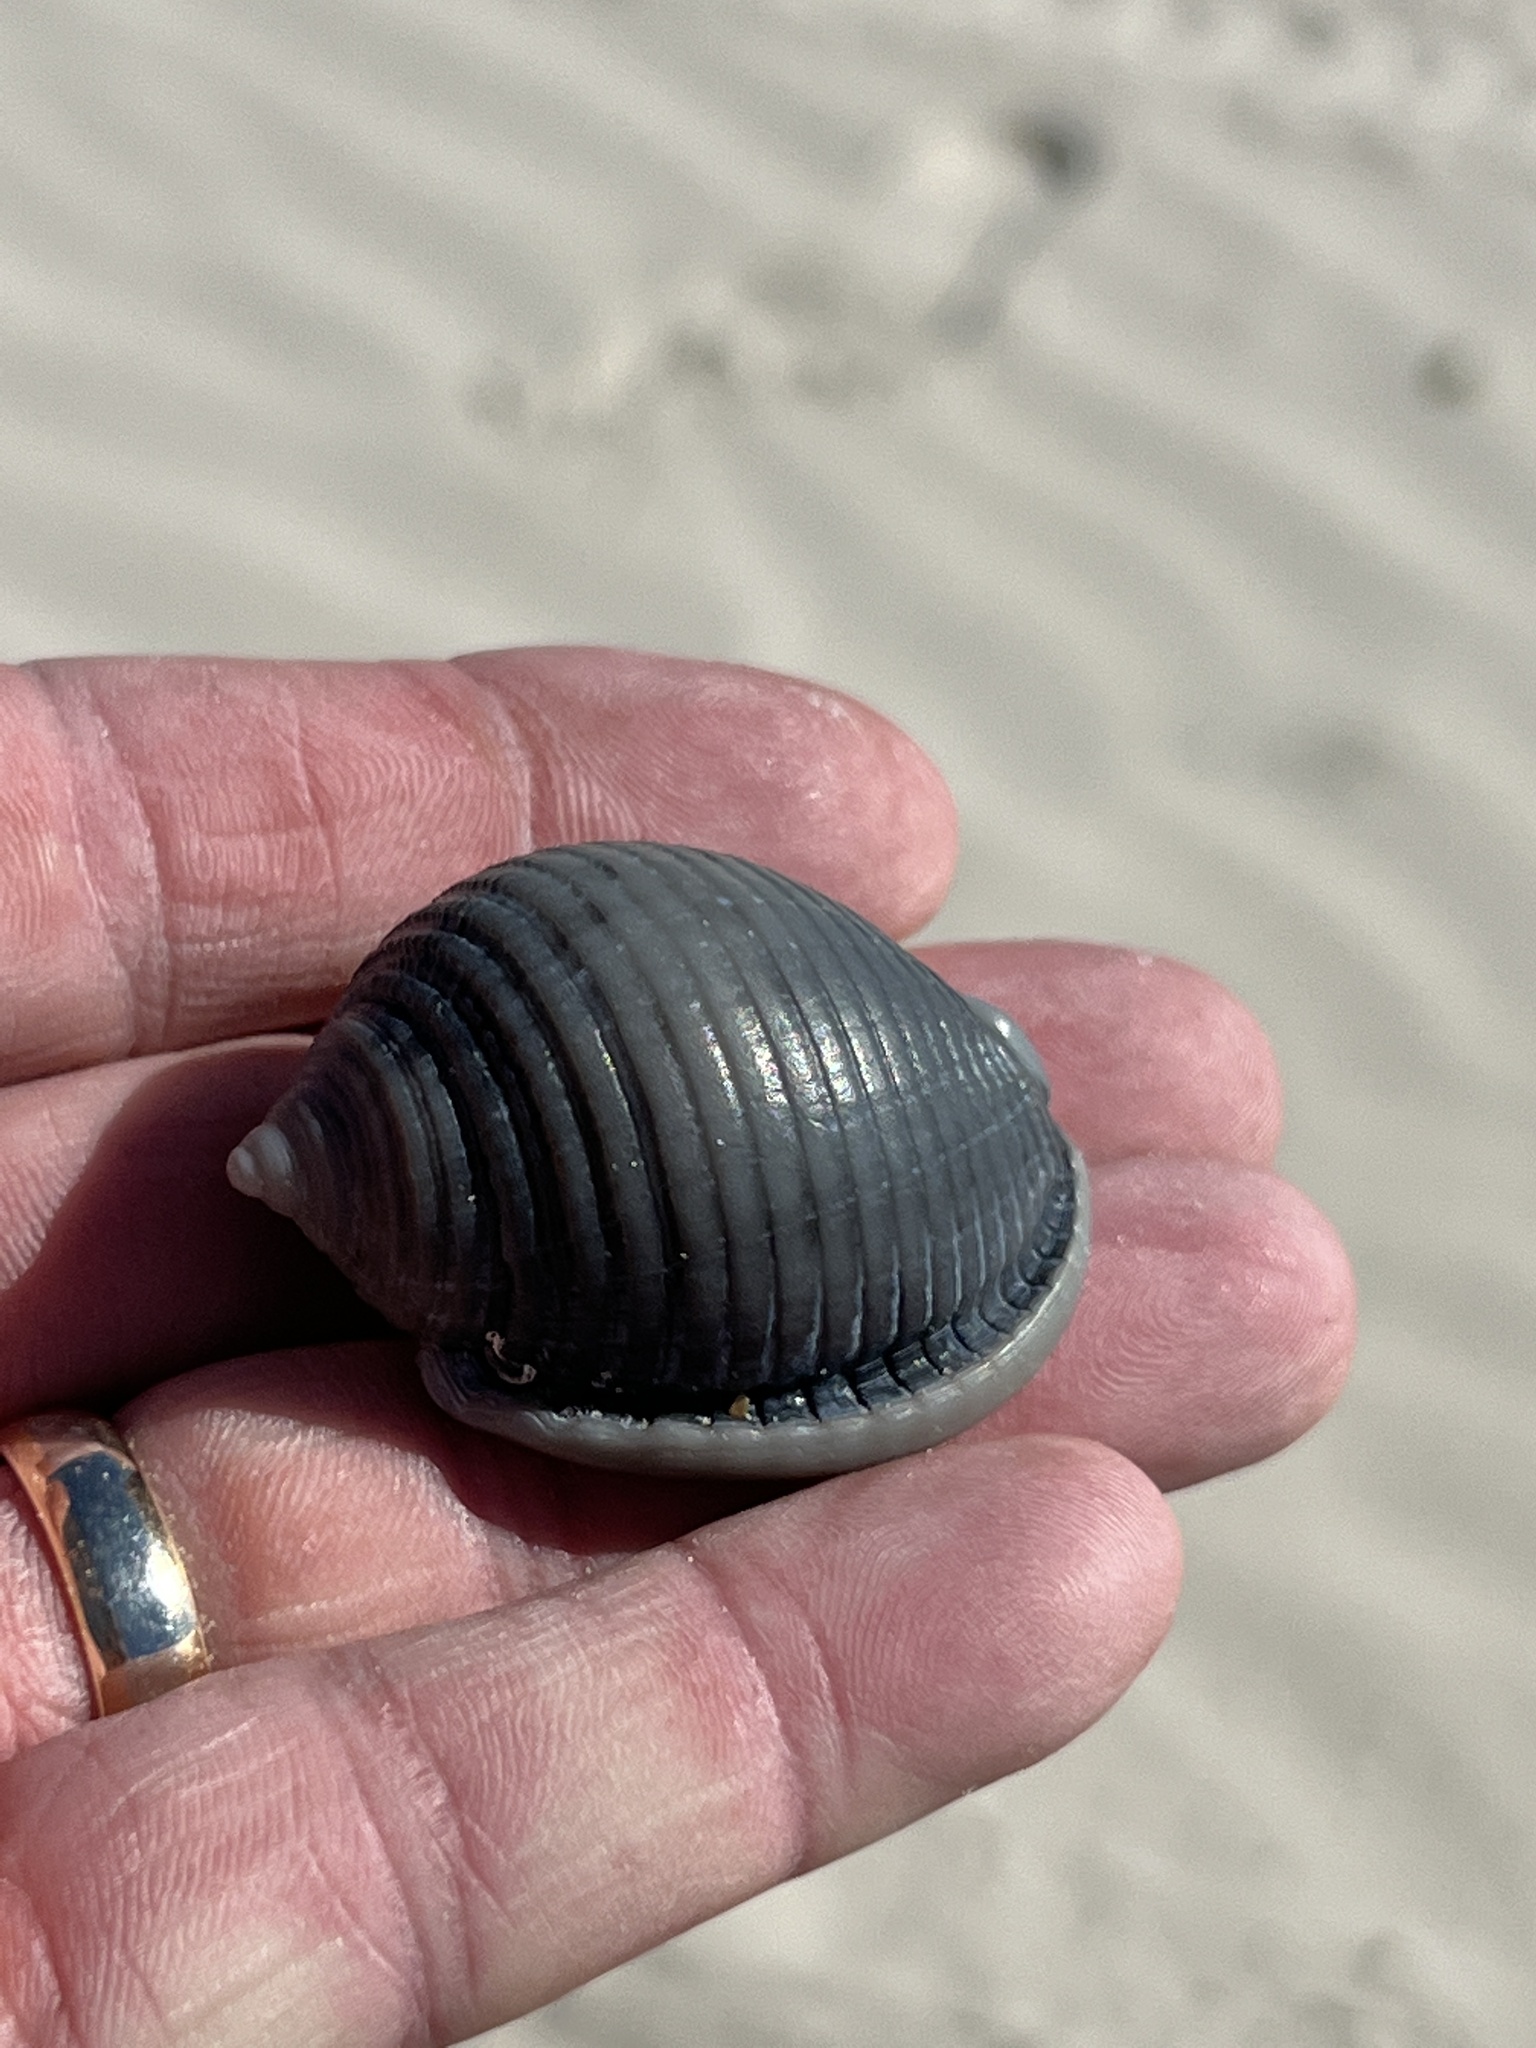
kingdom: Animalia
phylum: Mollusca
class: Gastropoda
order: Littorinimorpha
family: Cassidae
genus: Semicassis
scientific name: Semicassis granulata
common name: Scotch bonnet
